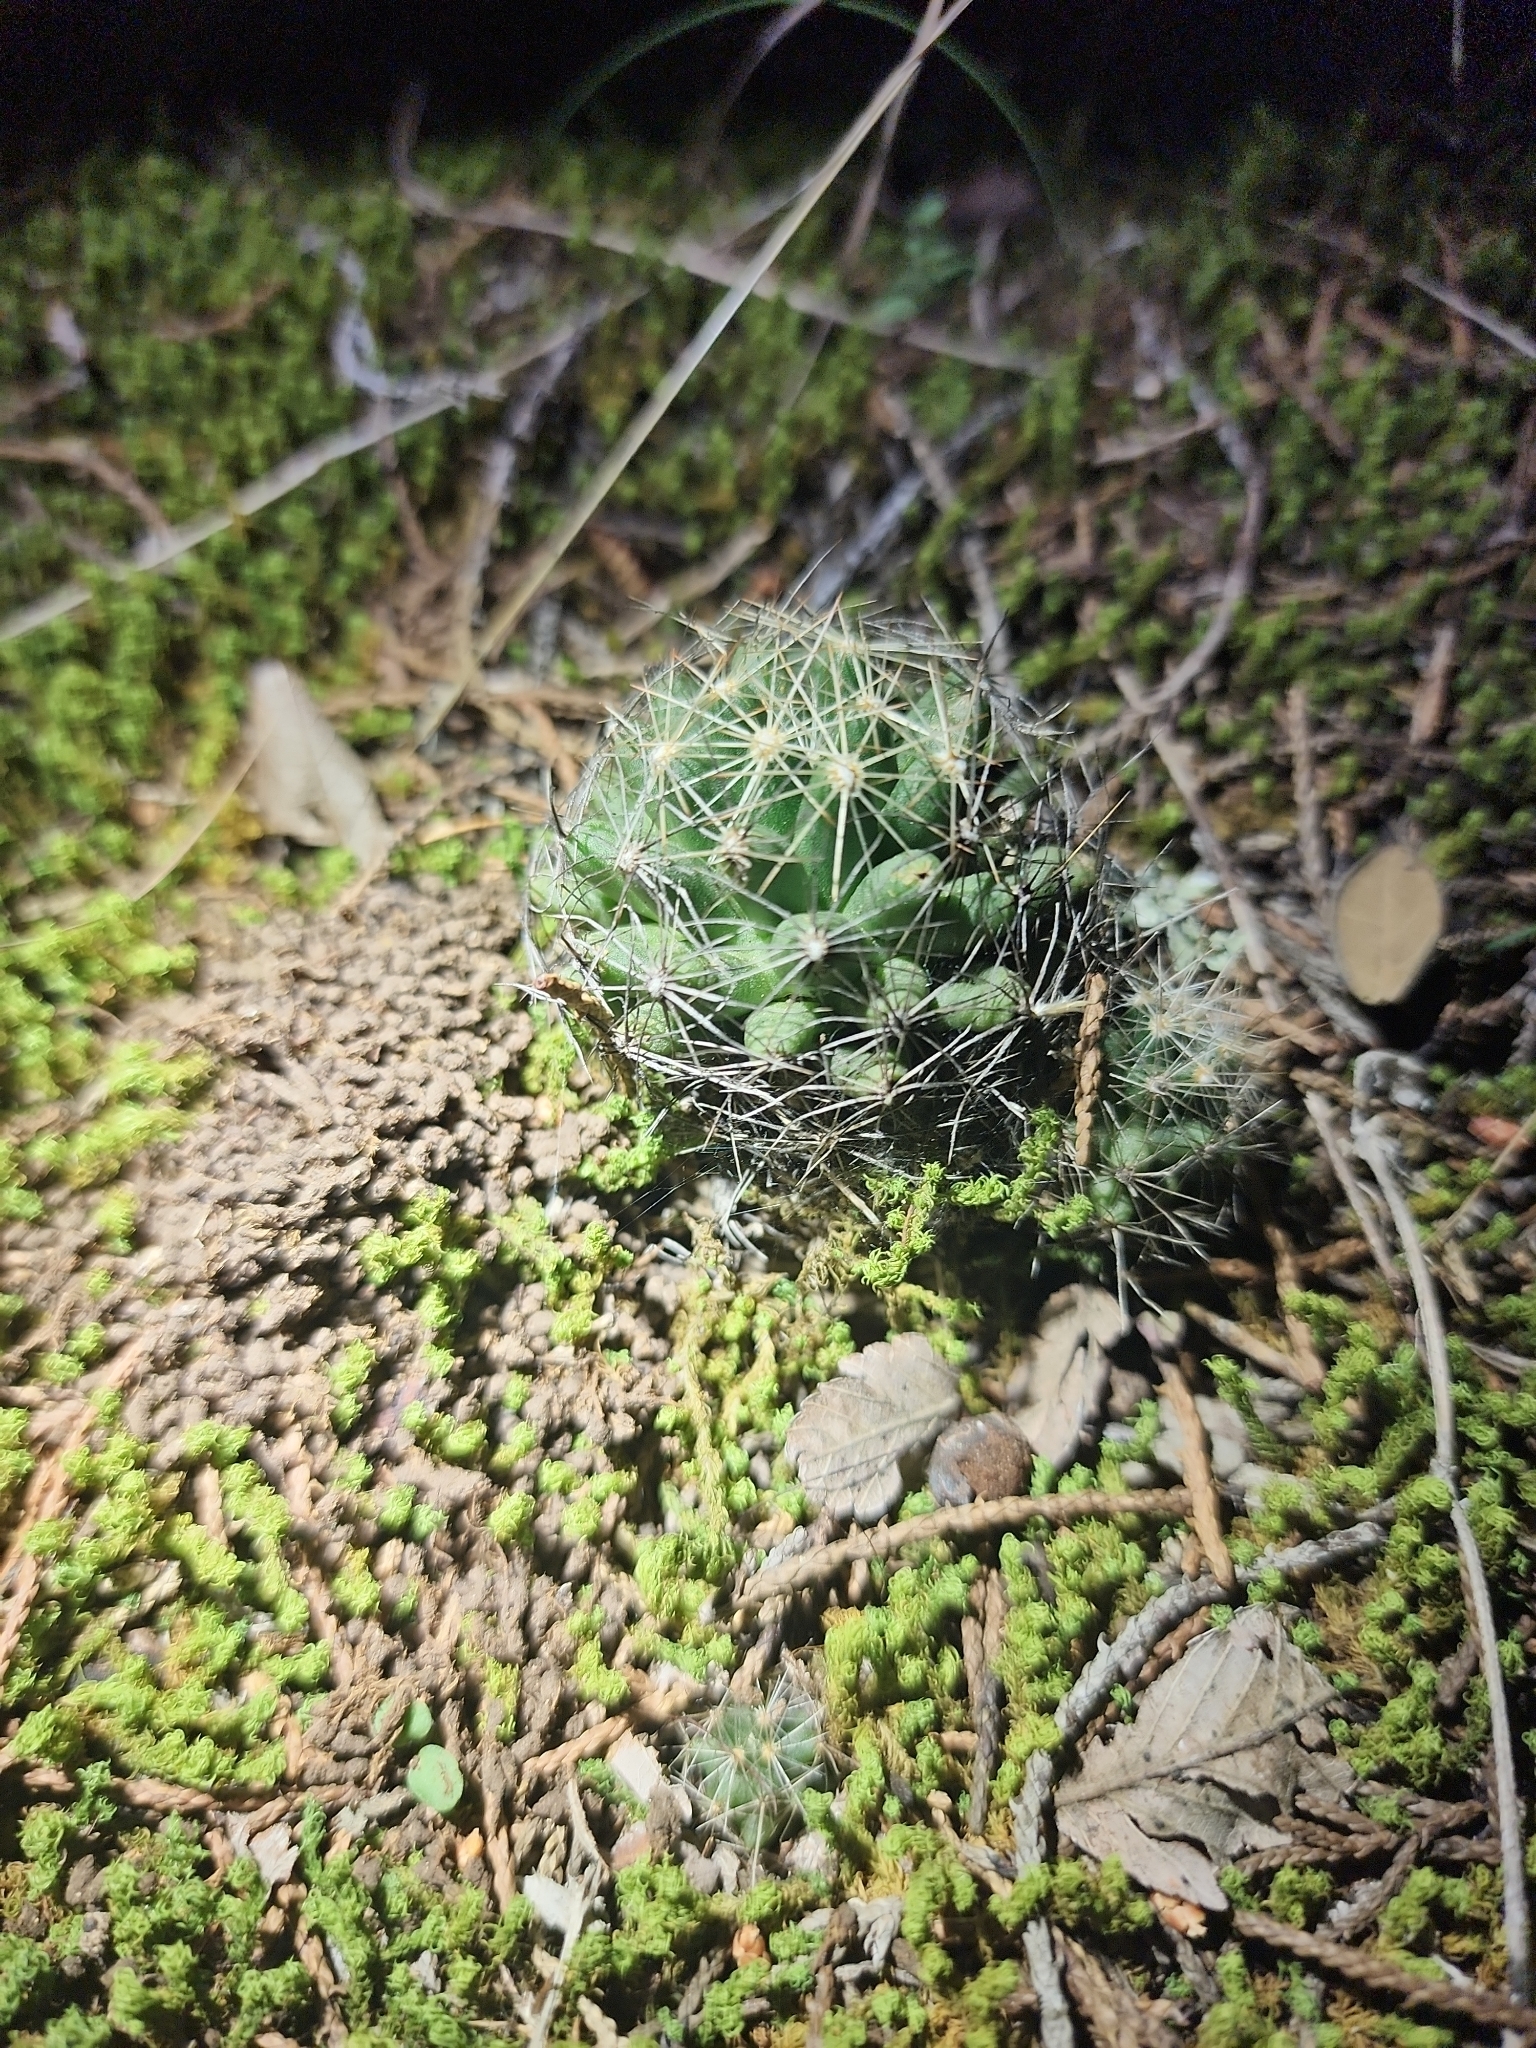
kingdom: Plantae
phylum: Tracheophyta
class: Magnoliopsida
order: Caryophyllales
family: Cactaceae
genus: Pelecyphora
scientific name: Pelecyphora missouriensis
